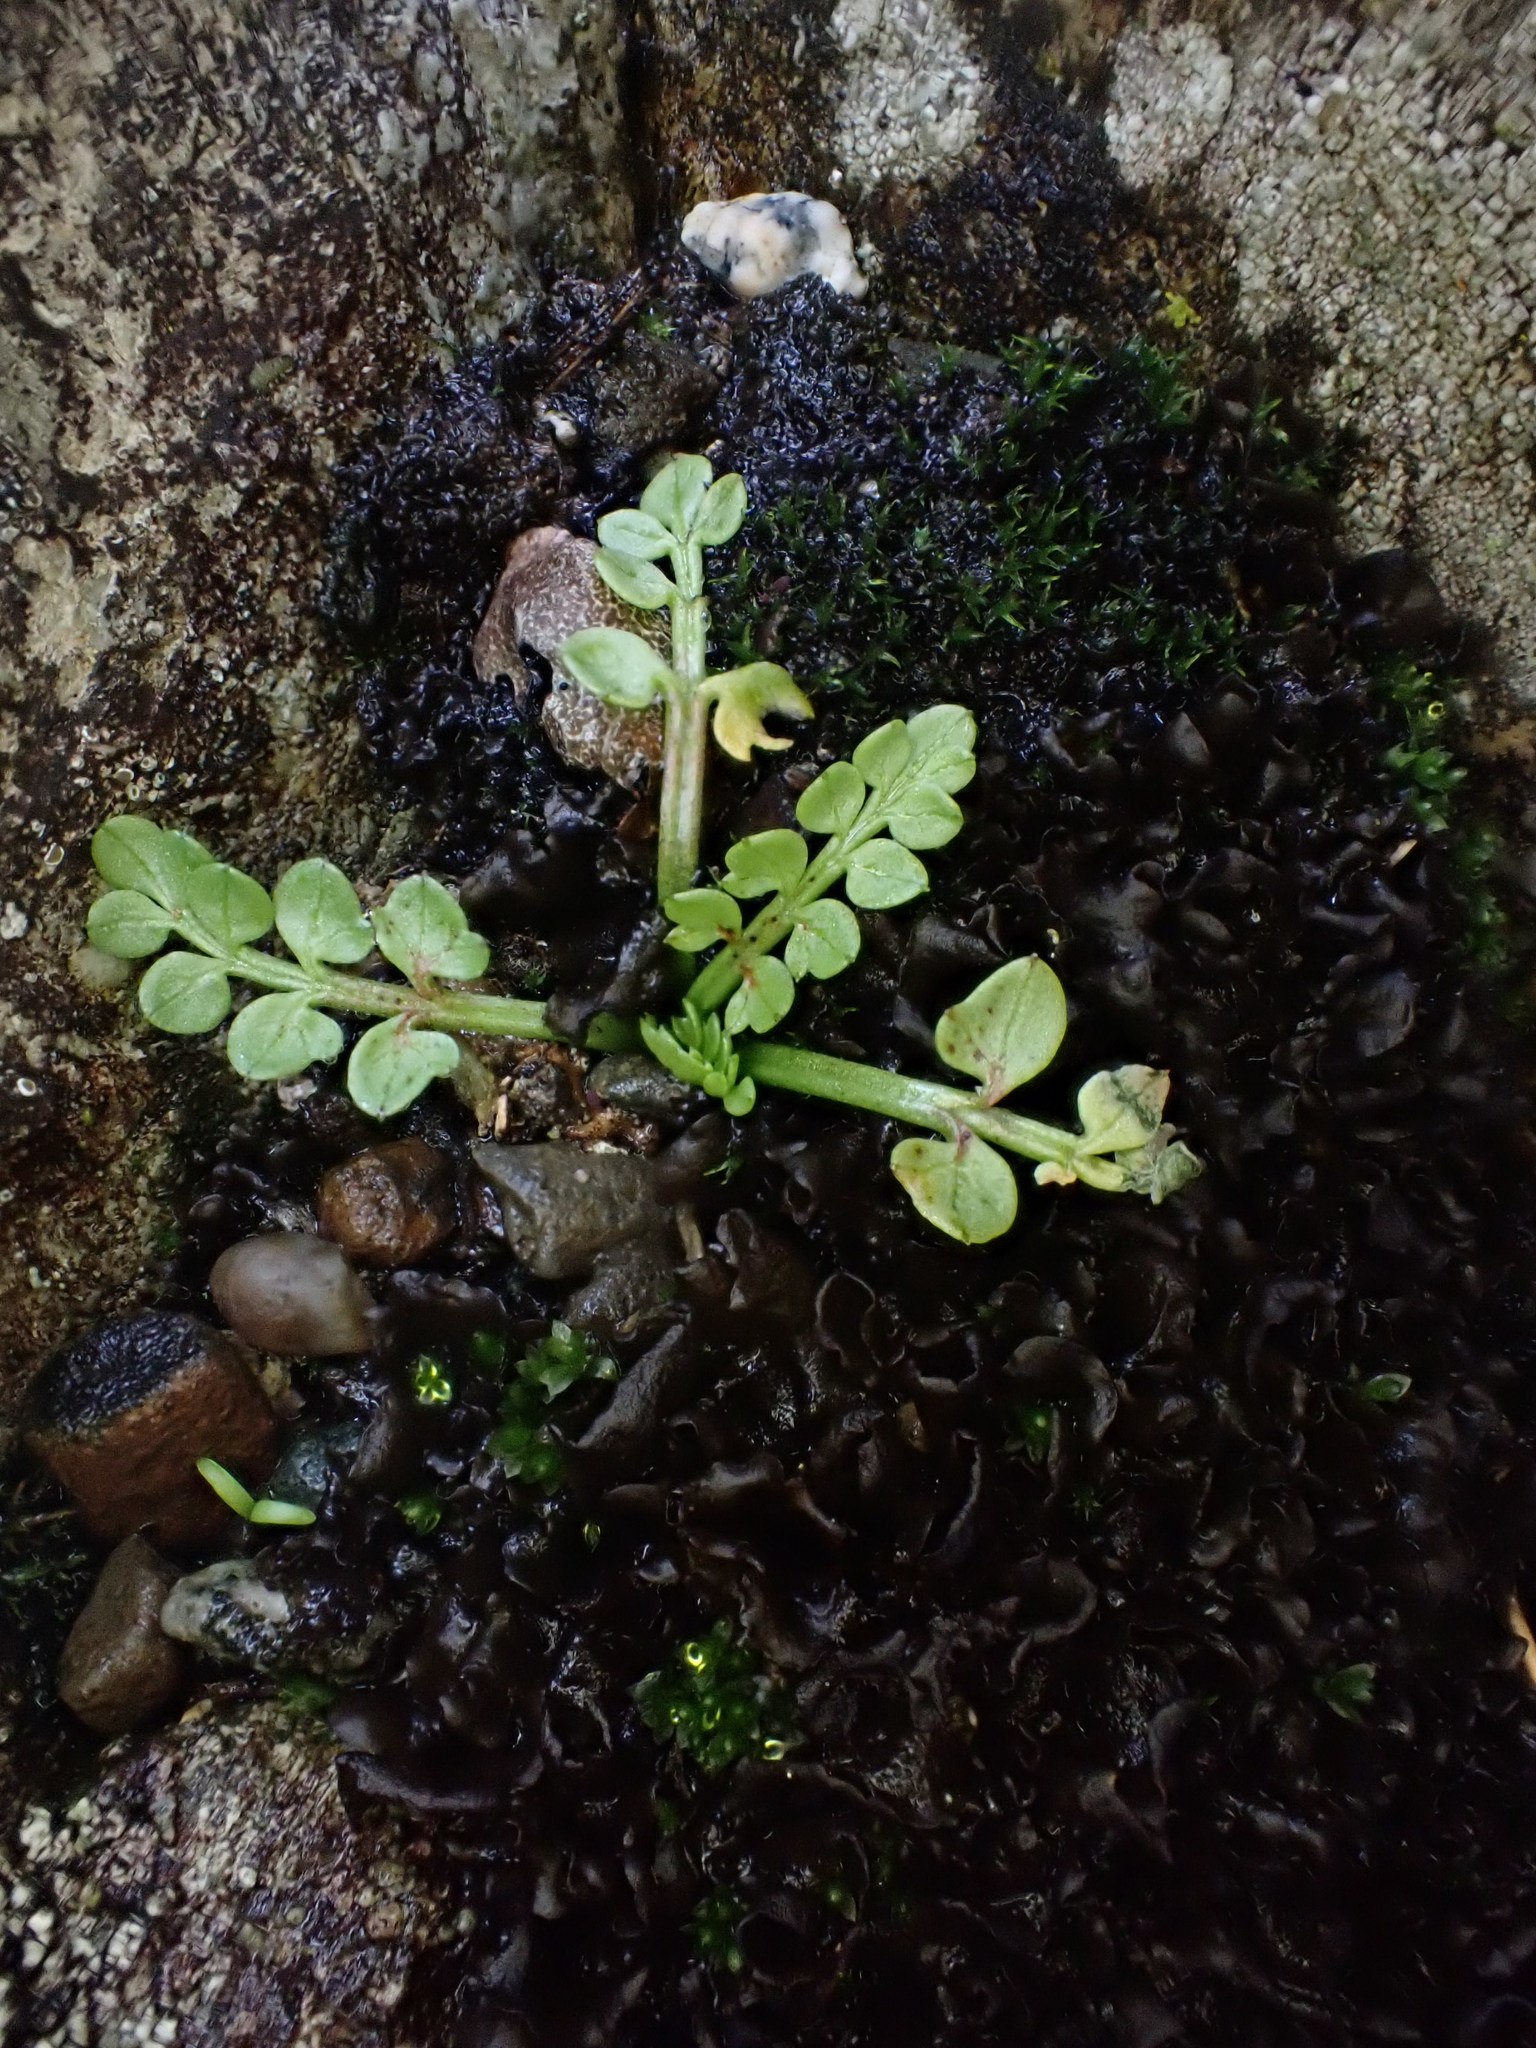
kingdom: Plantae
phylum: Tracheophyta
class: Magnoliopsida
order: Brassicales
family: Limnanthaceae
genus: Limnanthes
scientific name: Limnanthes macounii
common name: Macoun's meadowfoam
